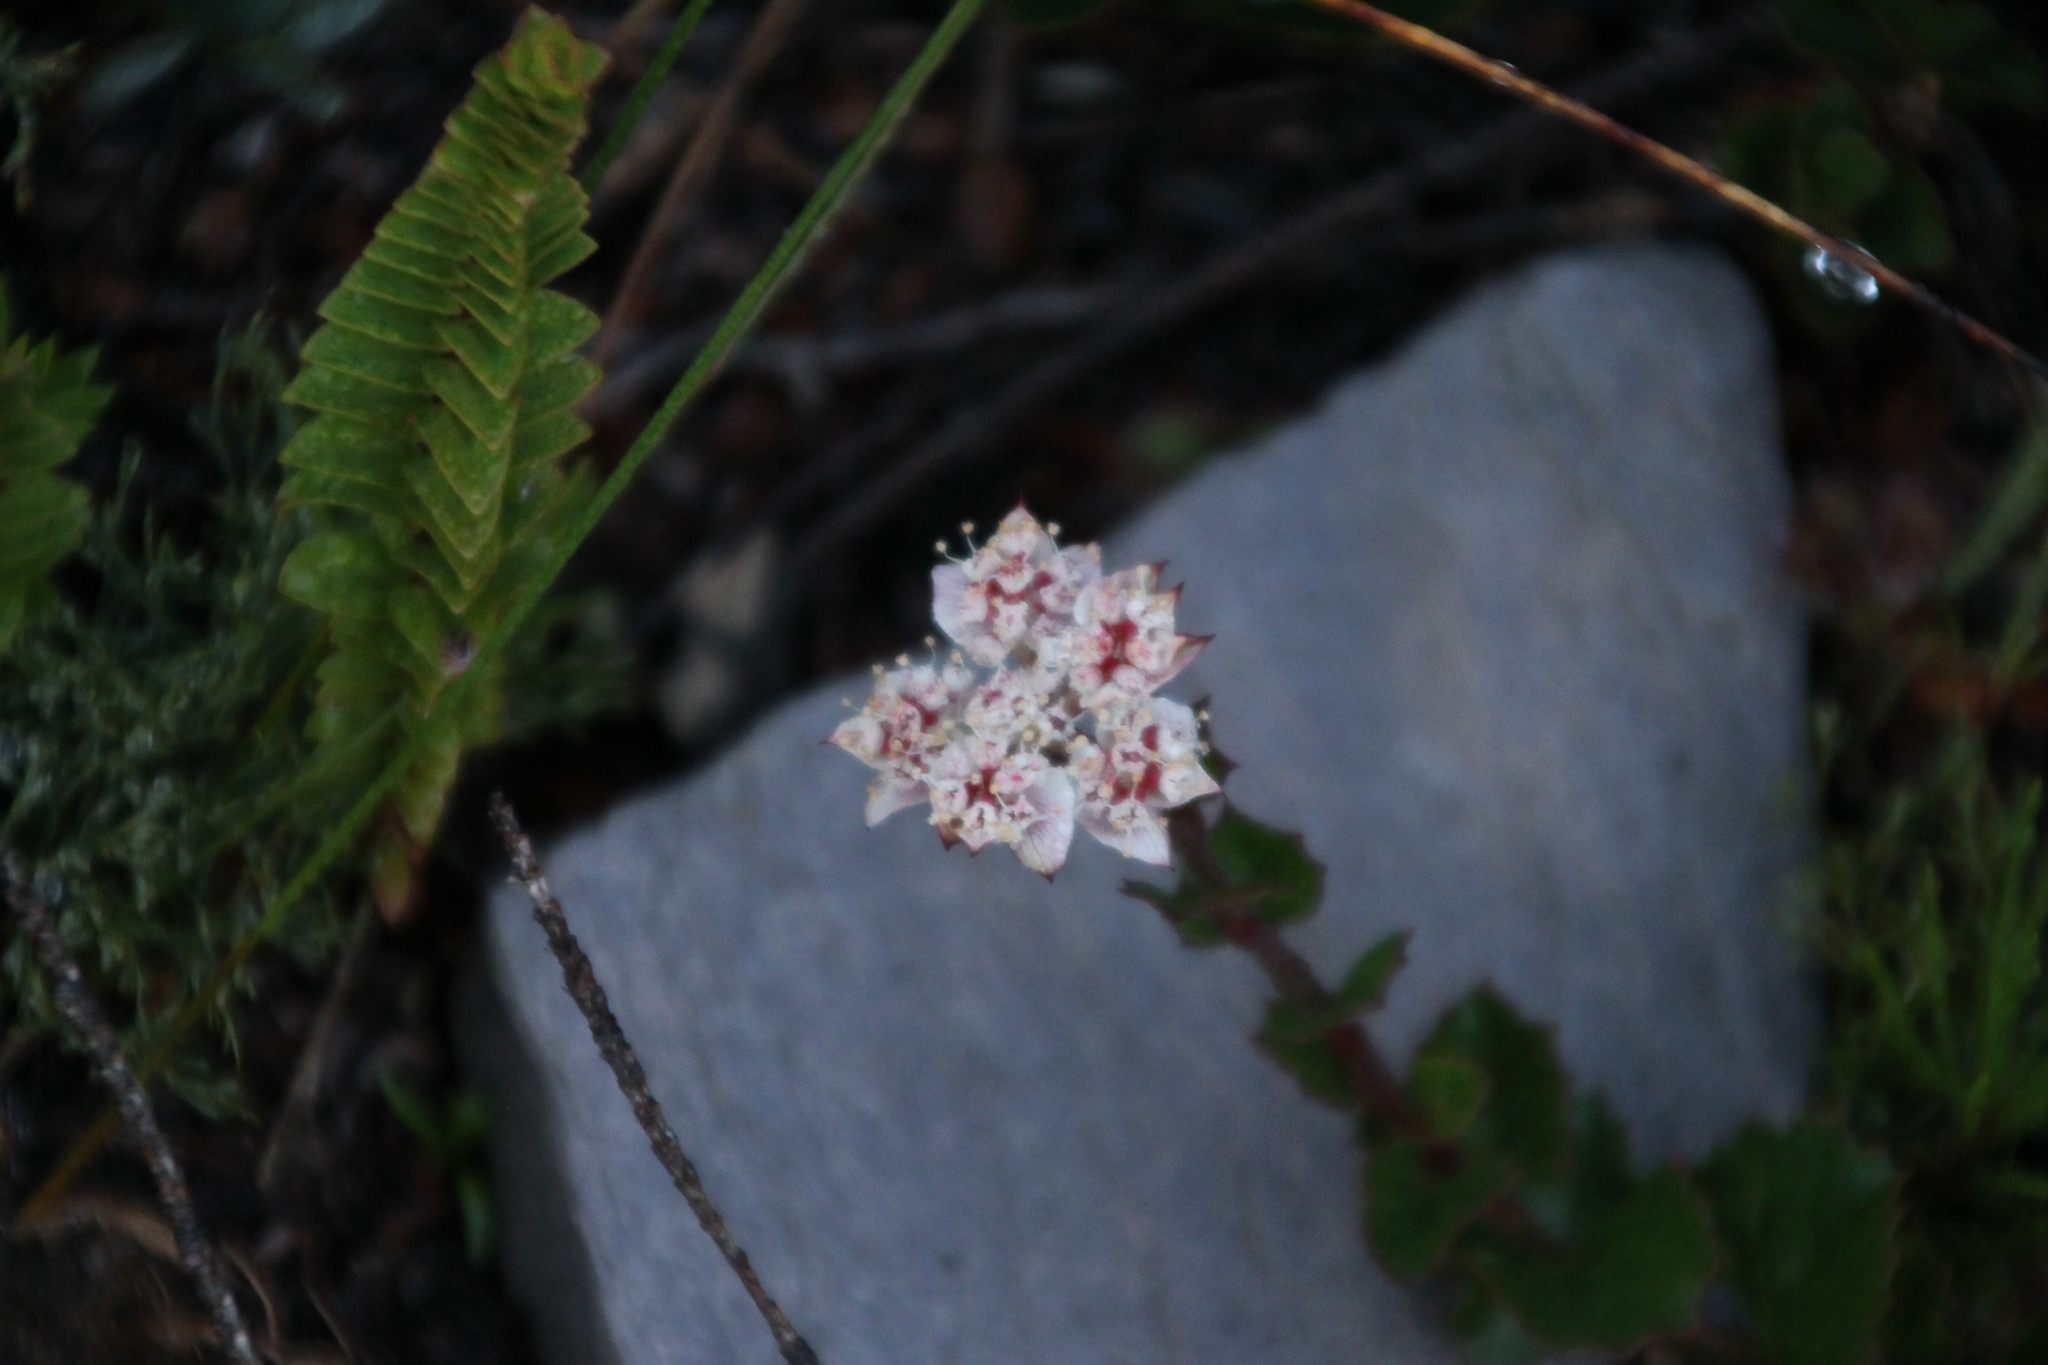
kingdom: Plantae
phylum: Tracheophyta
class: Magnoliopsida
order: Apiales
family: Apiaceae
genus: Xanthosia
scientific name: Xanthosia rotundifolia
